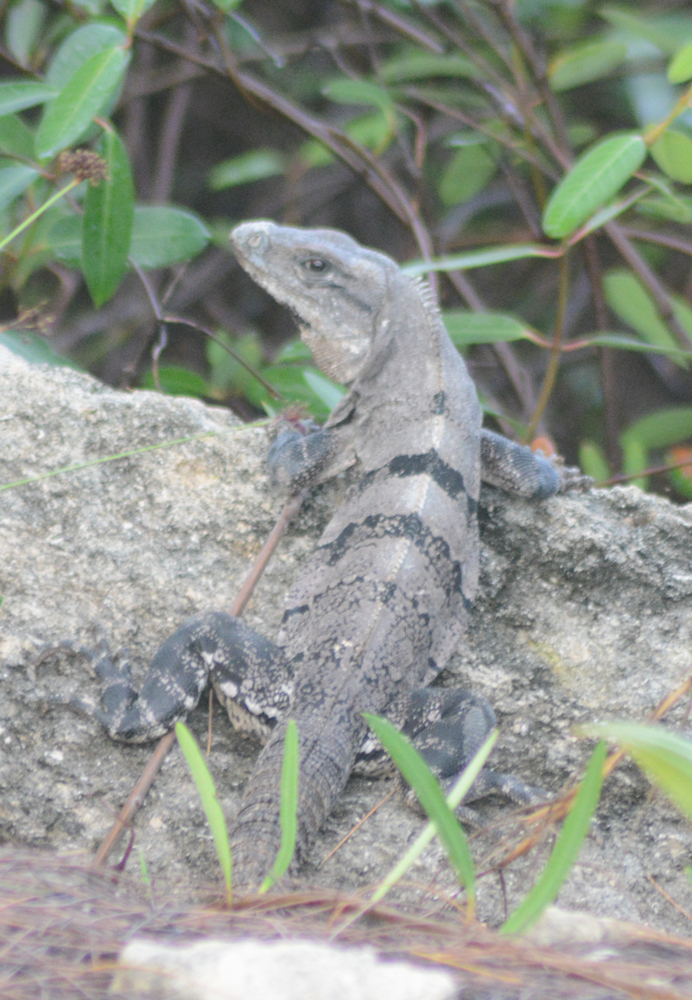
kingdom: Animalia
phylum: Chordata
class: Squamata
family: Iguanidae
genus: Ctenosaura
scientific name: Ctenosaura similis
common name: Black spiny-tailed iguana
